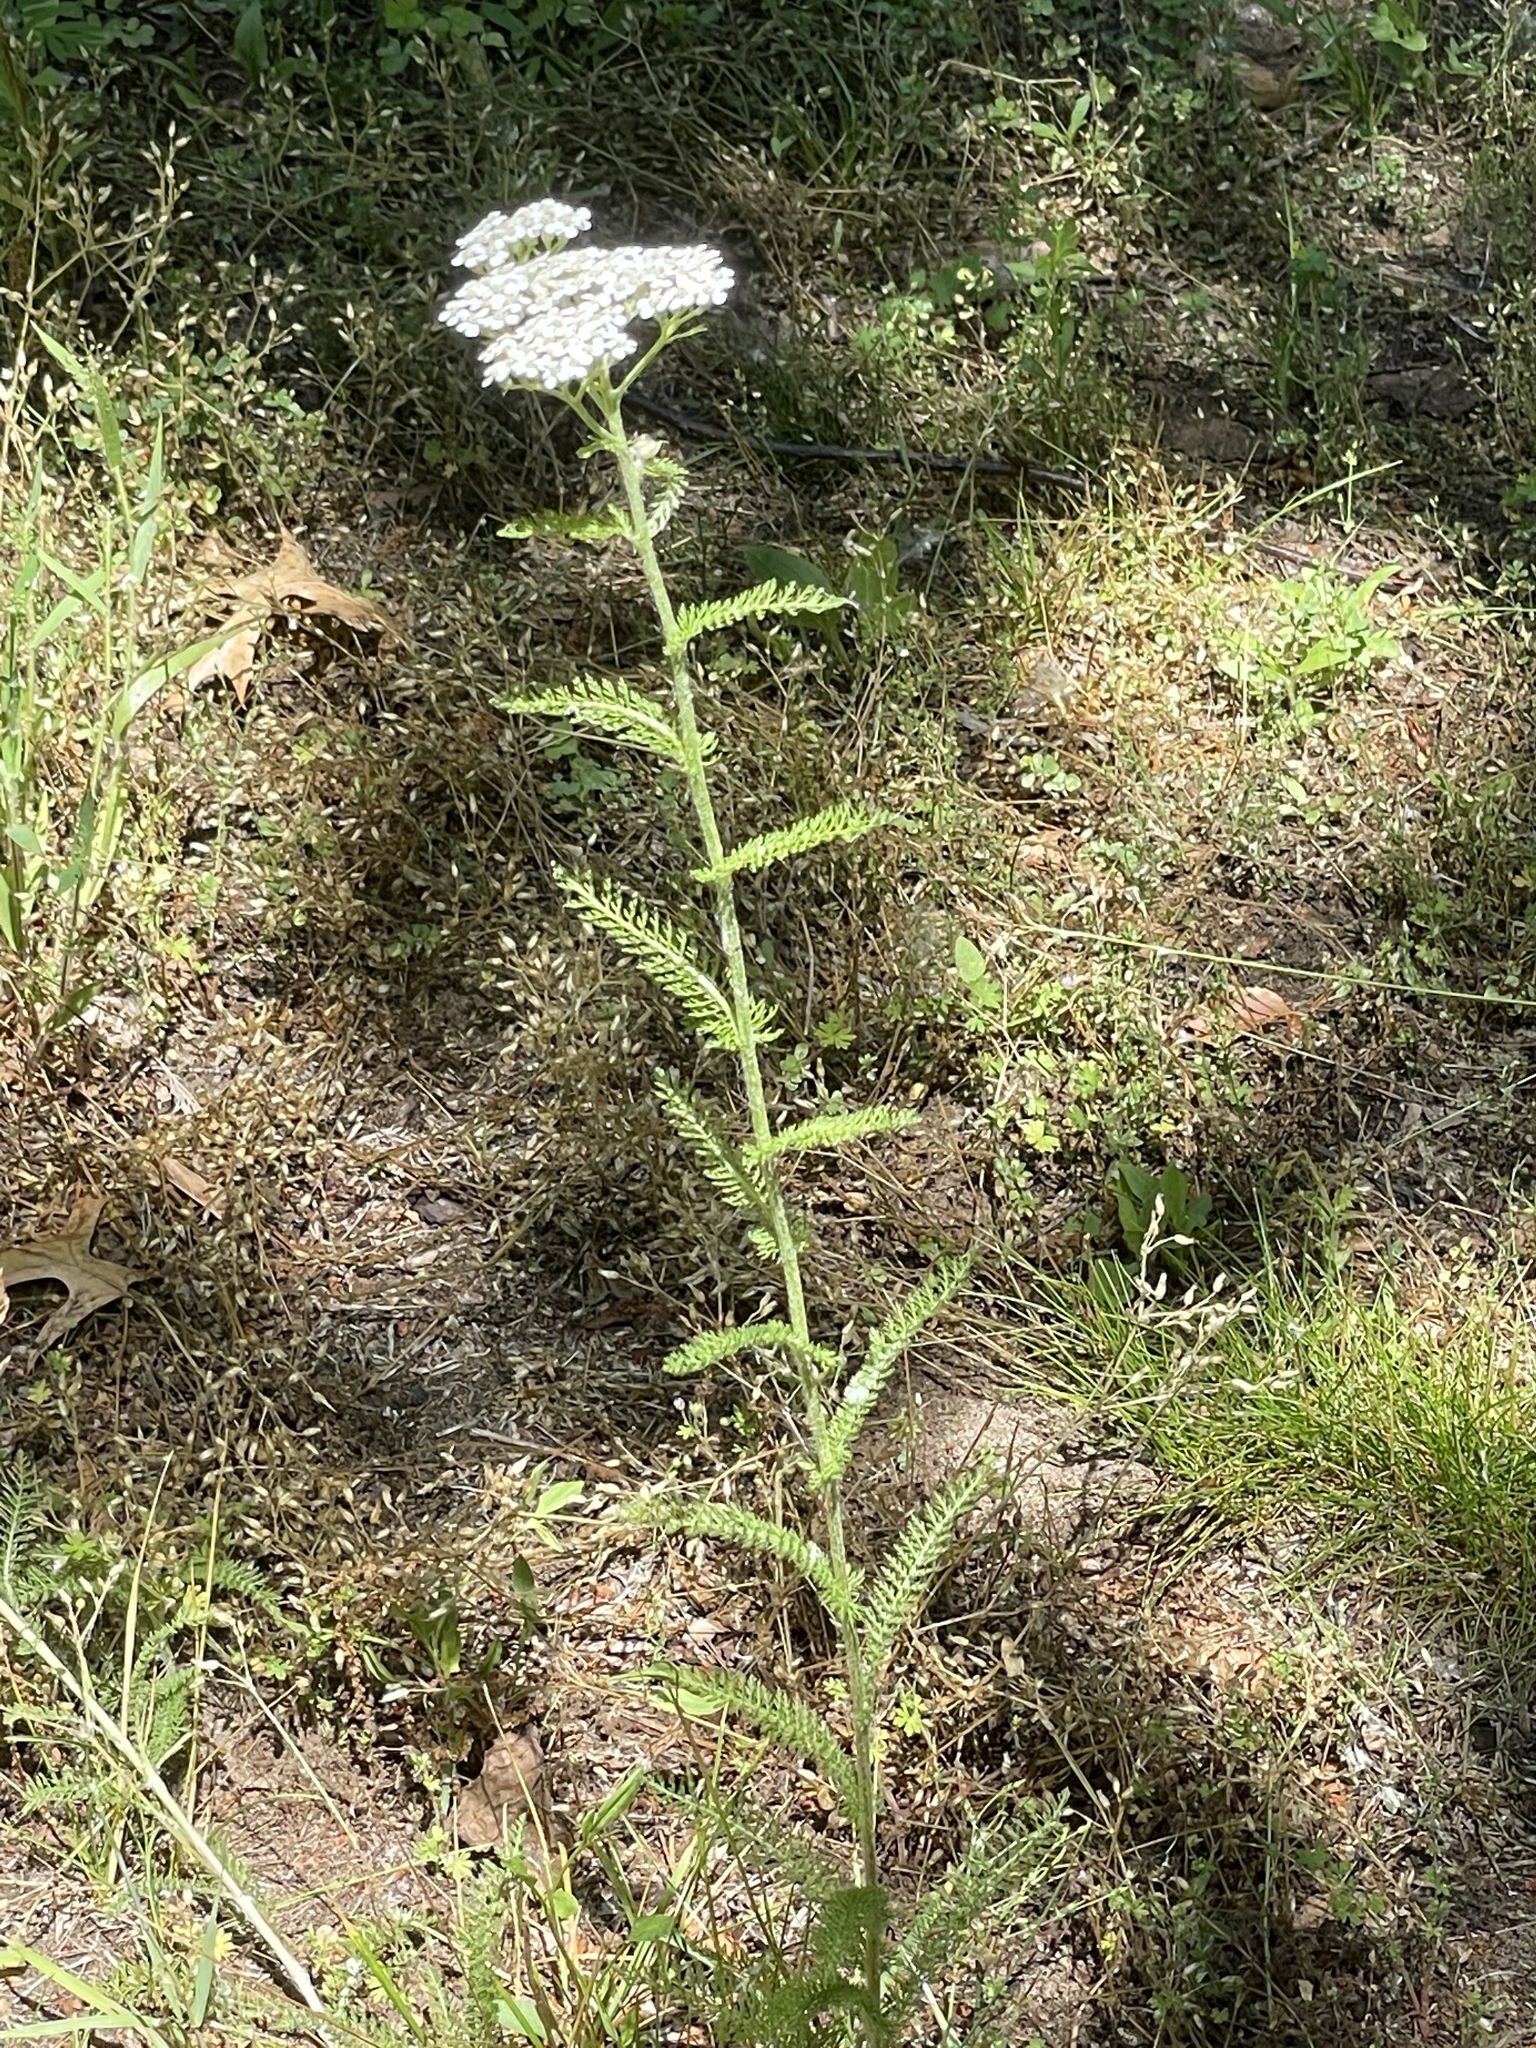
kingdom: Plantae
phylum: Tracheophyta
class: Magnoliopsida
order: Asterales
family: Asteraceae
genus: Achillea
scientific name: Achillea millefolium
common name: Yarrow
